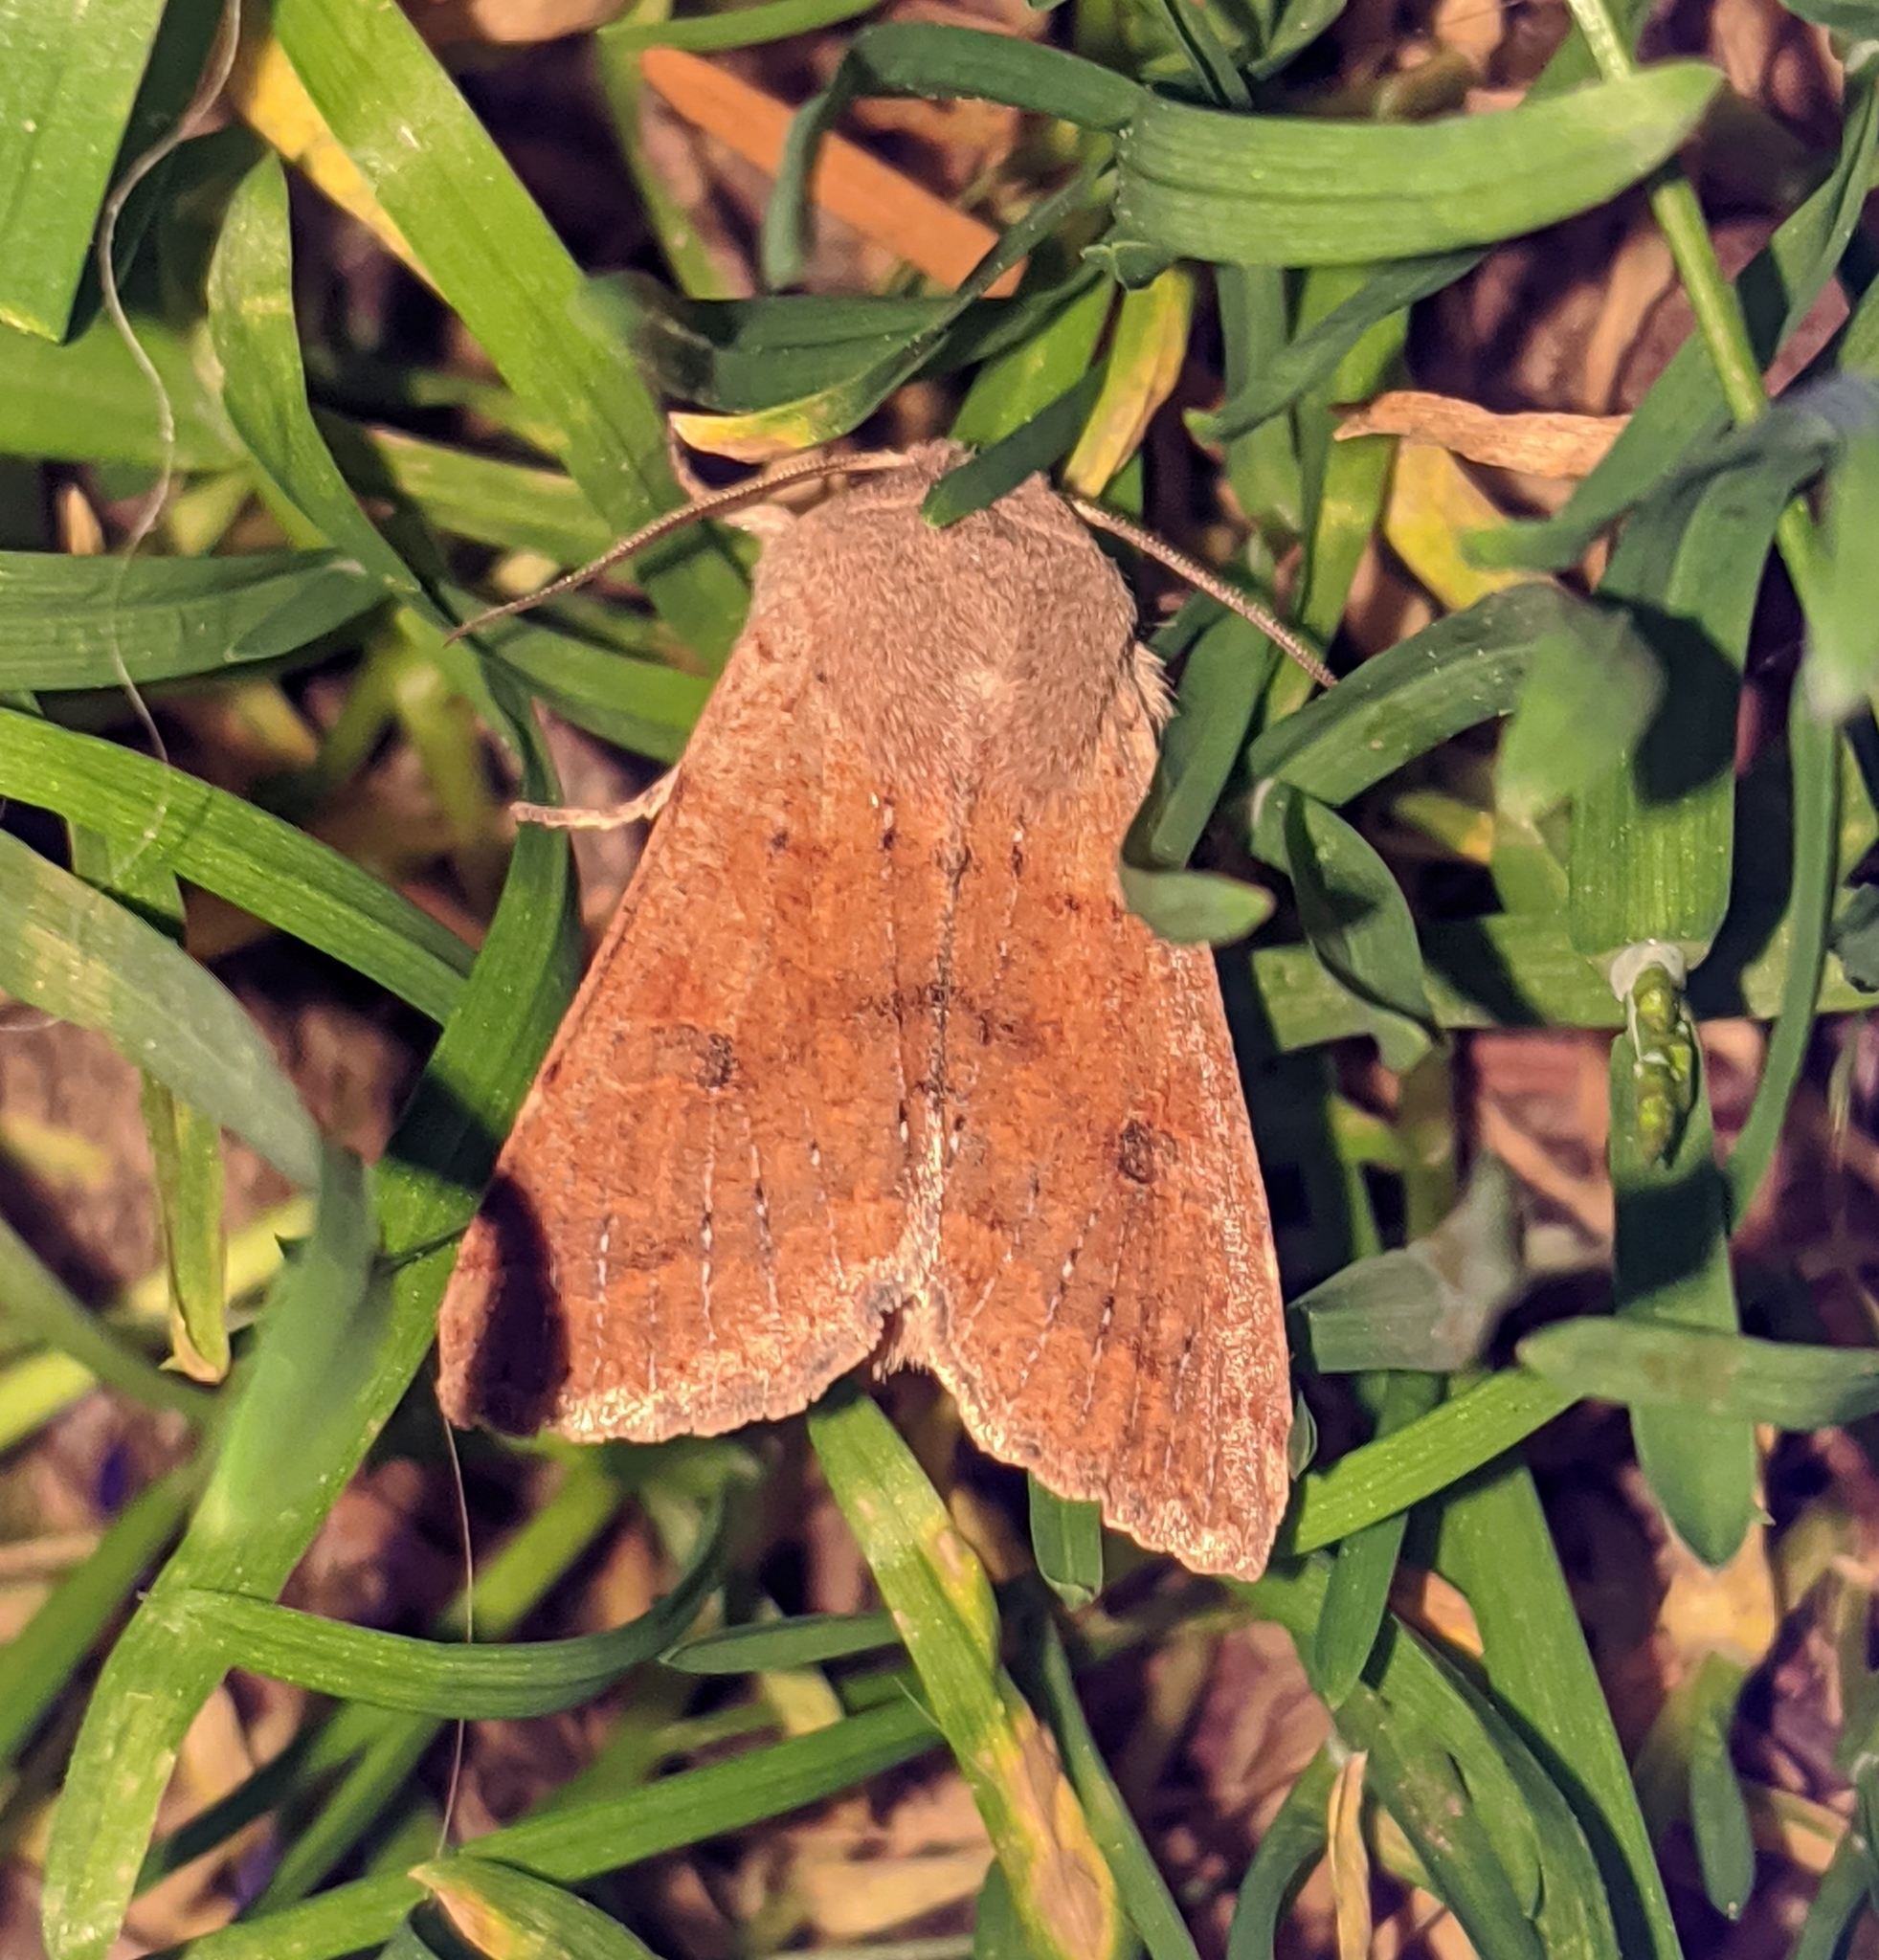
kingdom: Animalia
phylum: Arthropoda
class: Insecta
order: Lepidoptera
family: Noctuidae
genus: Orthosia
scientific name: Orthosia pacifica
